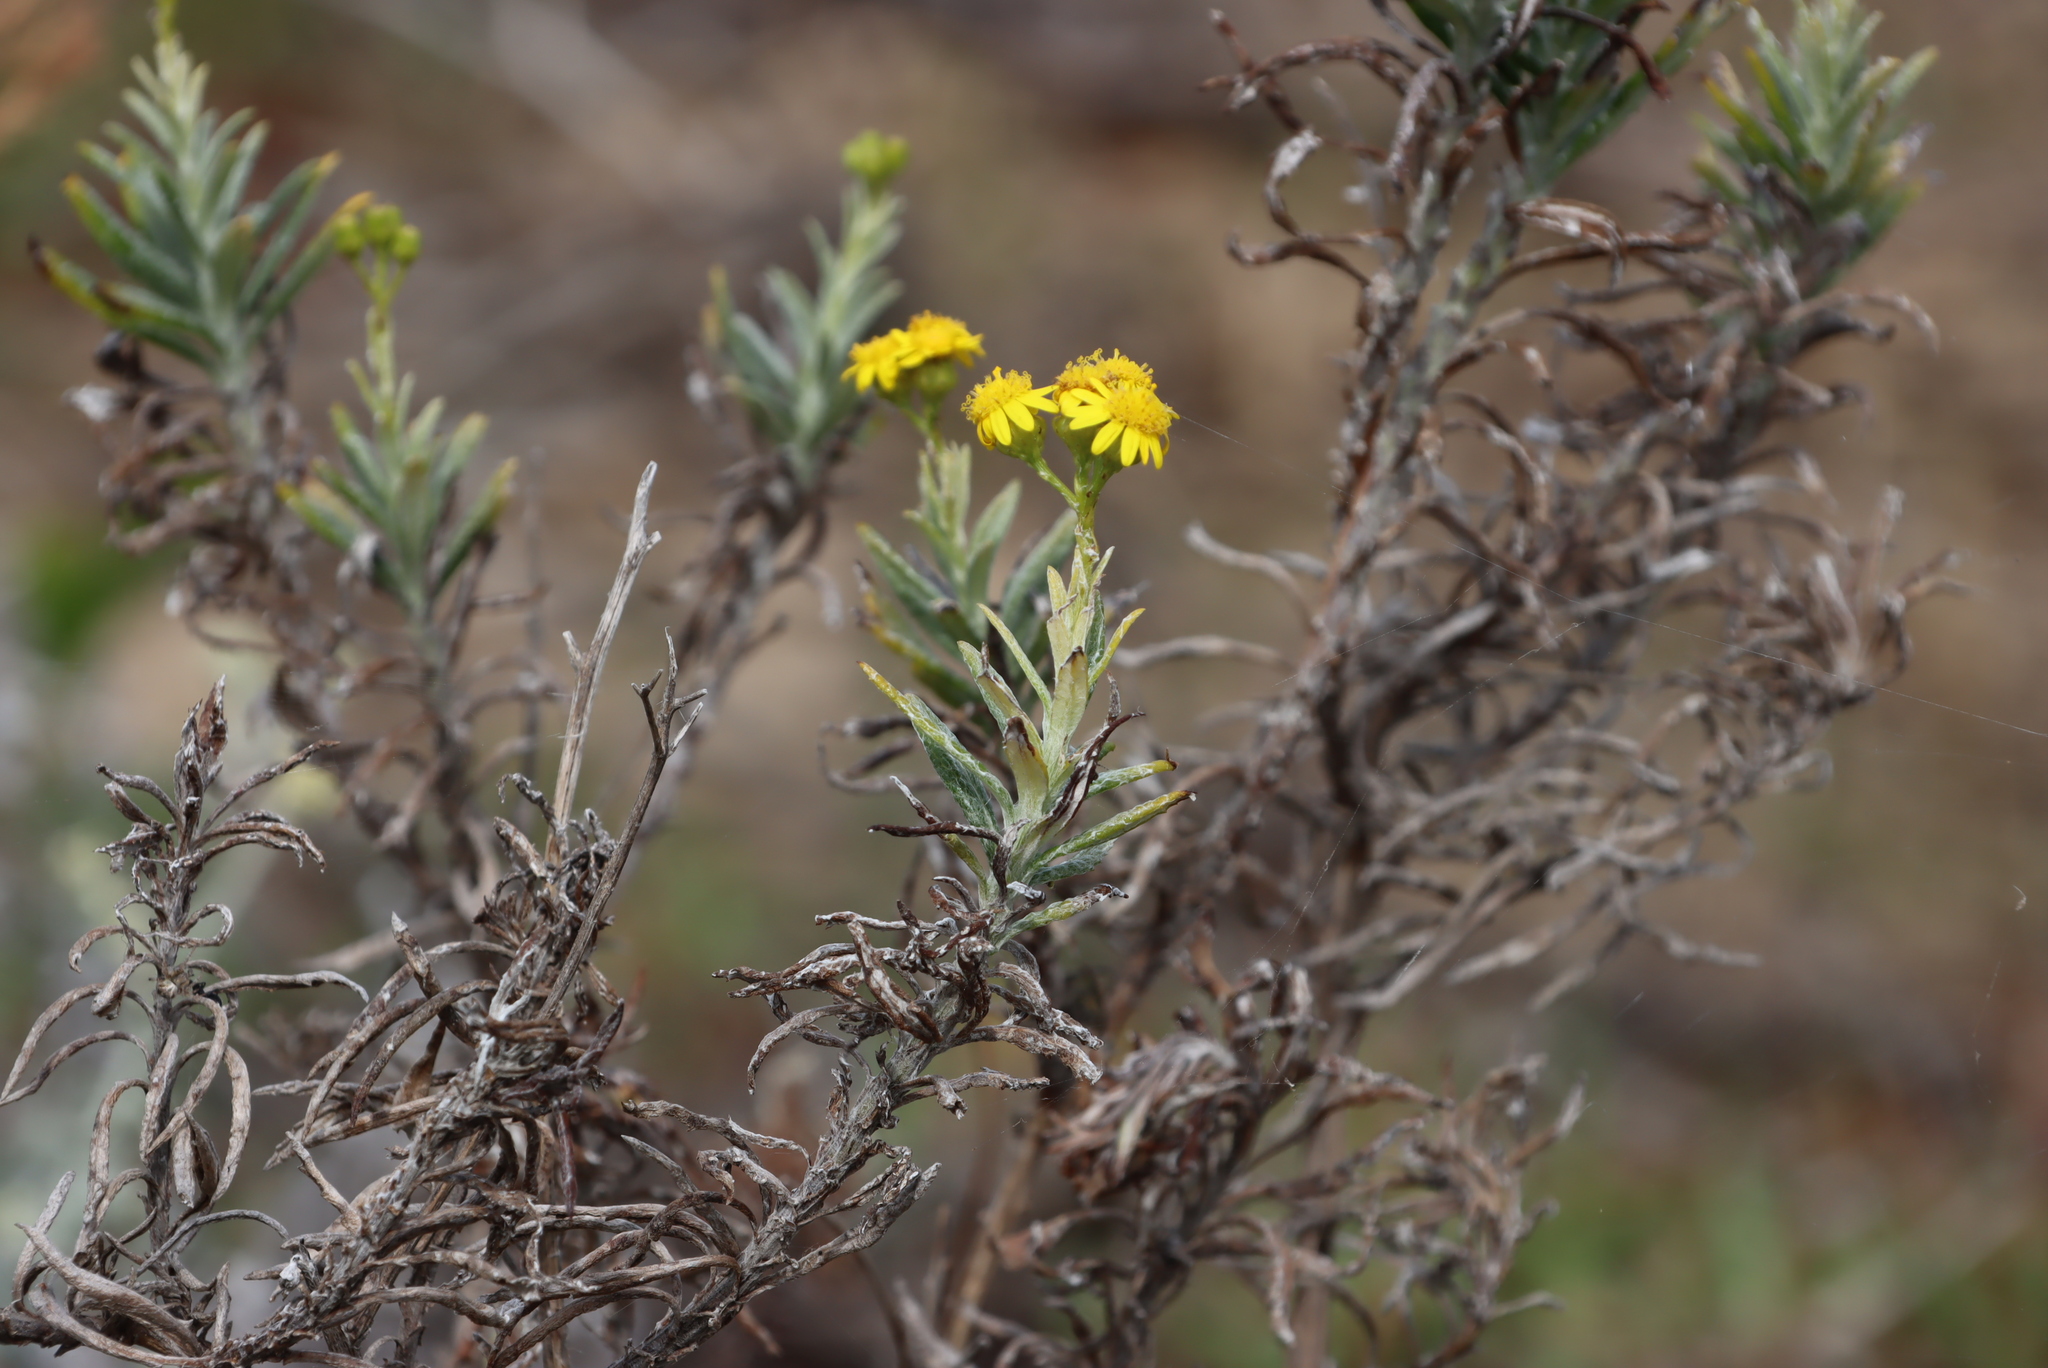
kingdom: Plantae
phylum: Tracheophyta
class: Magnoliopsida
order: Asterales
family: Asteraceae
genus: Senecio
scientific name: Senecio pterophorus
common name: Shoddy ragwort
